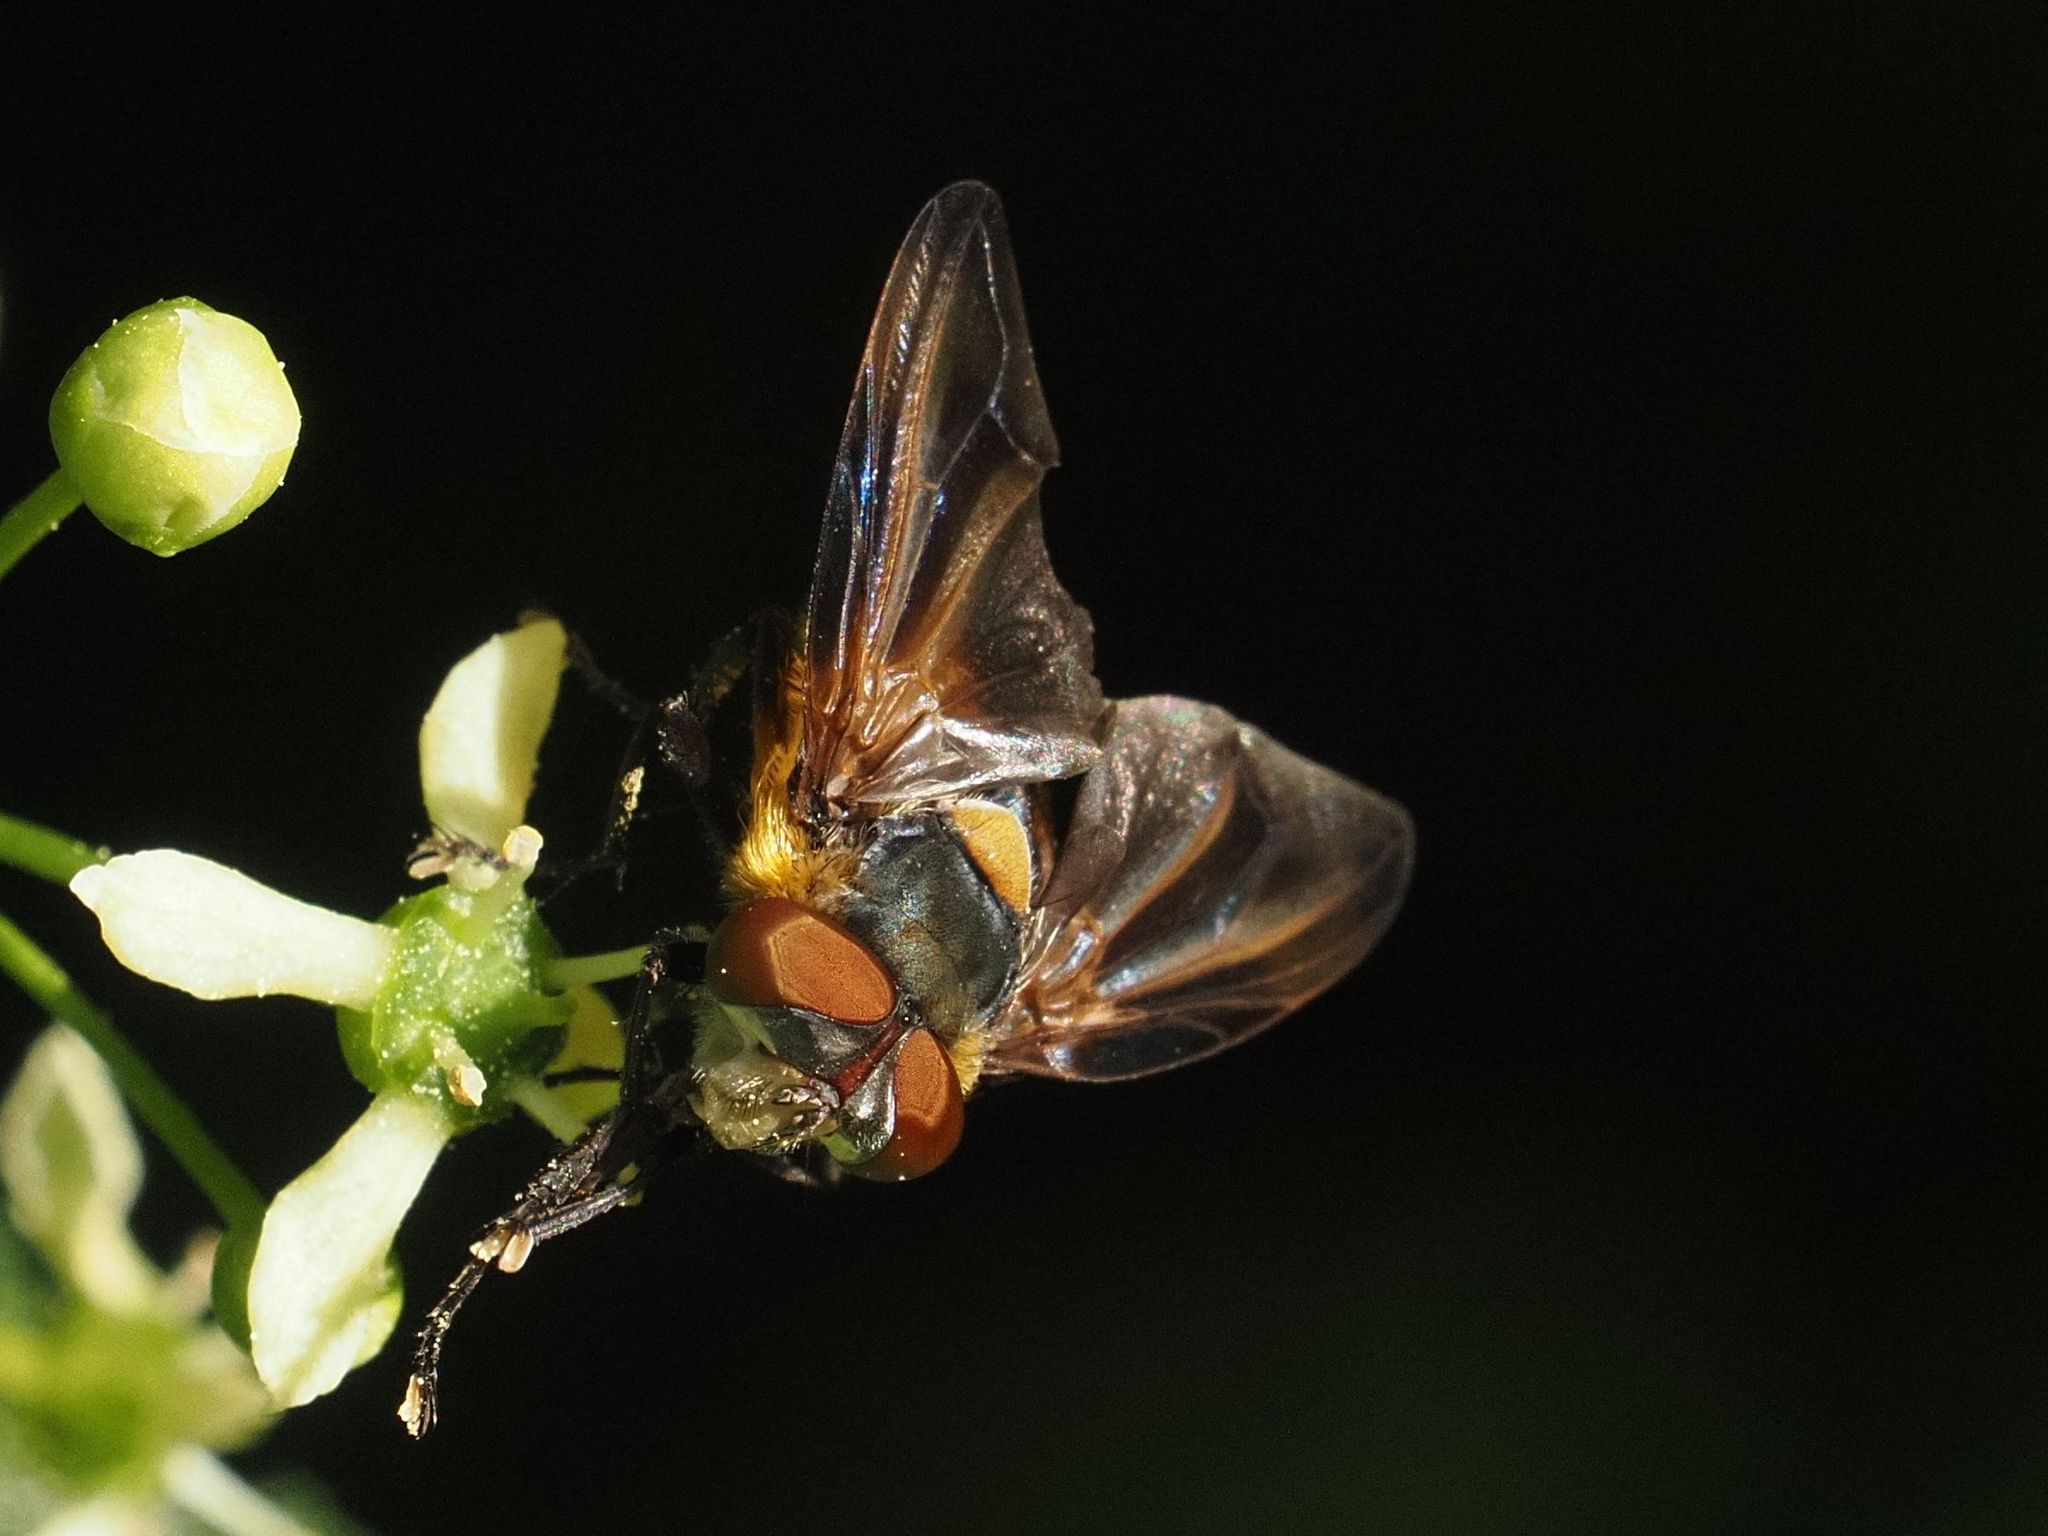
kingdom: Animalia
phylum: Arthropoda
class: Insecta
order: Diptera
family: Tachinidae
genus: Phasia
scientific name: Phasia hemiptera
